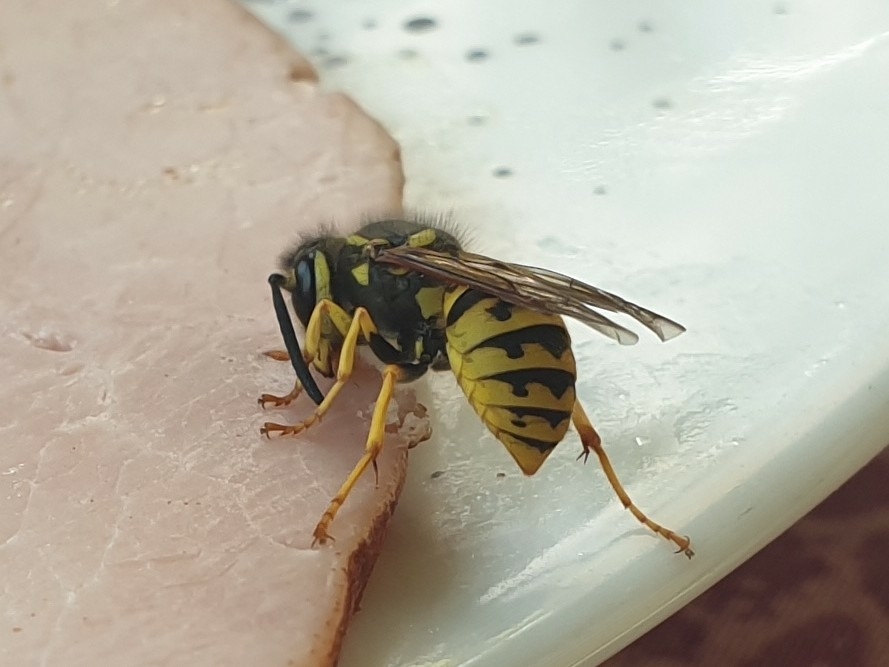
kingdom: Animalia
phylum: Arthropoda
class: Insecta
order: Hymenoptera
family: Vespidae
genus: Vespula
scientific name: Vespula germanica
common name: German wasp
